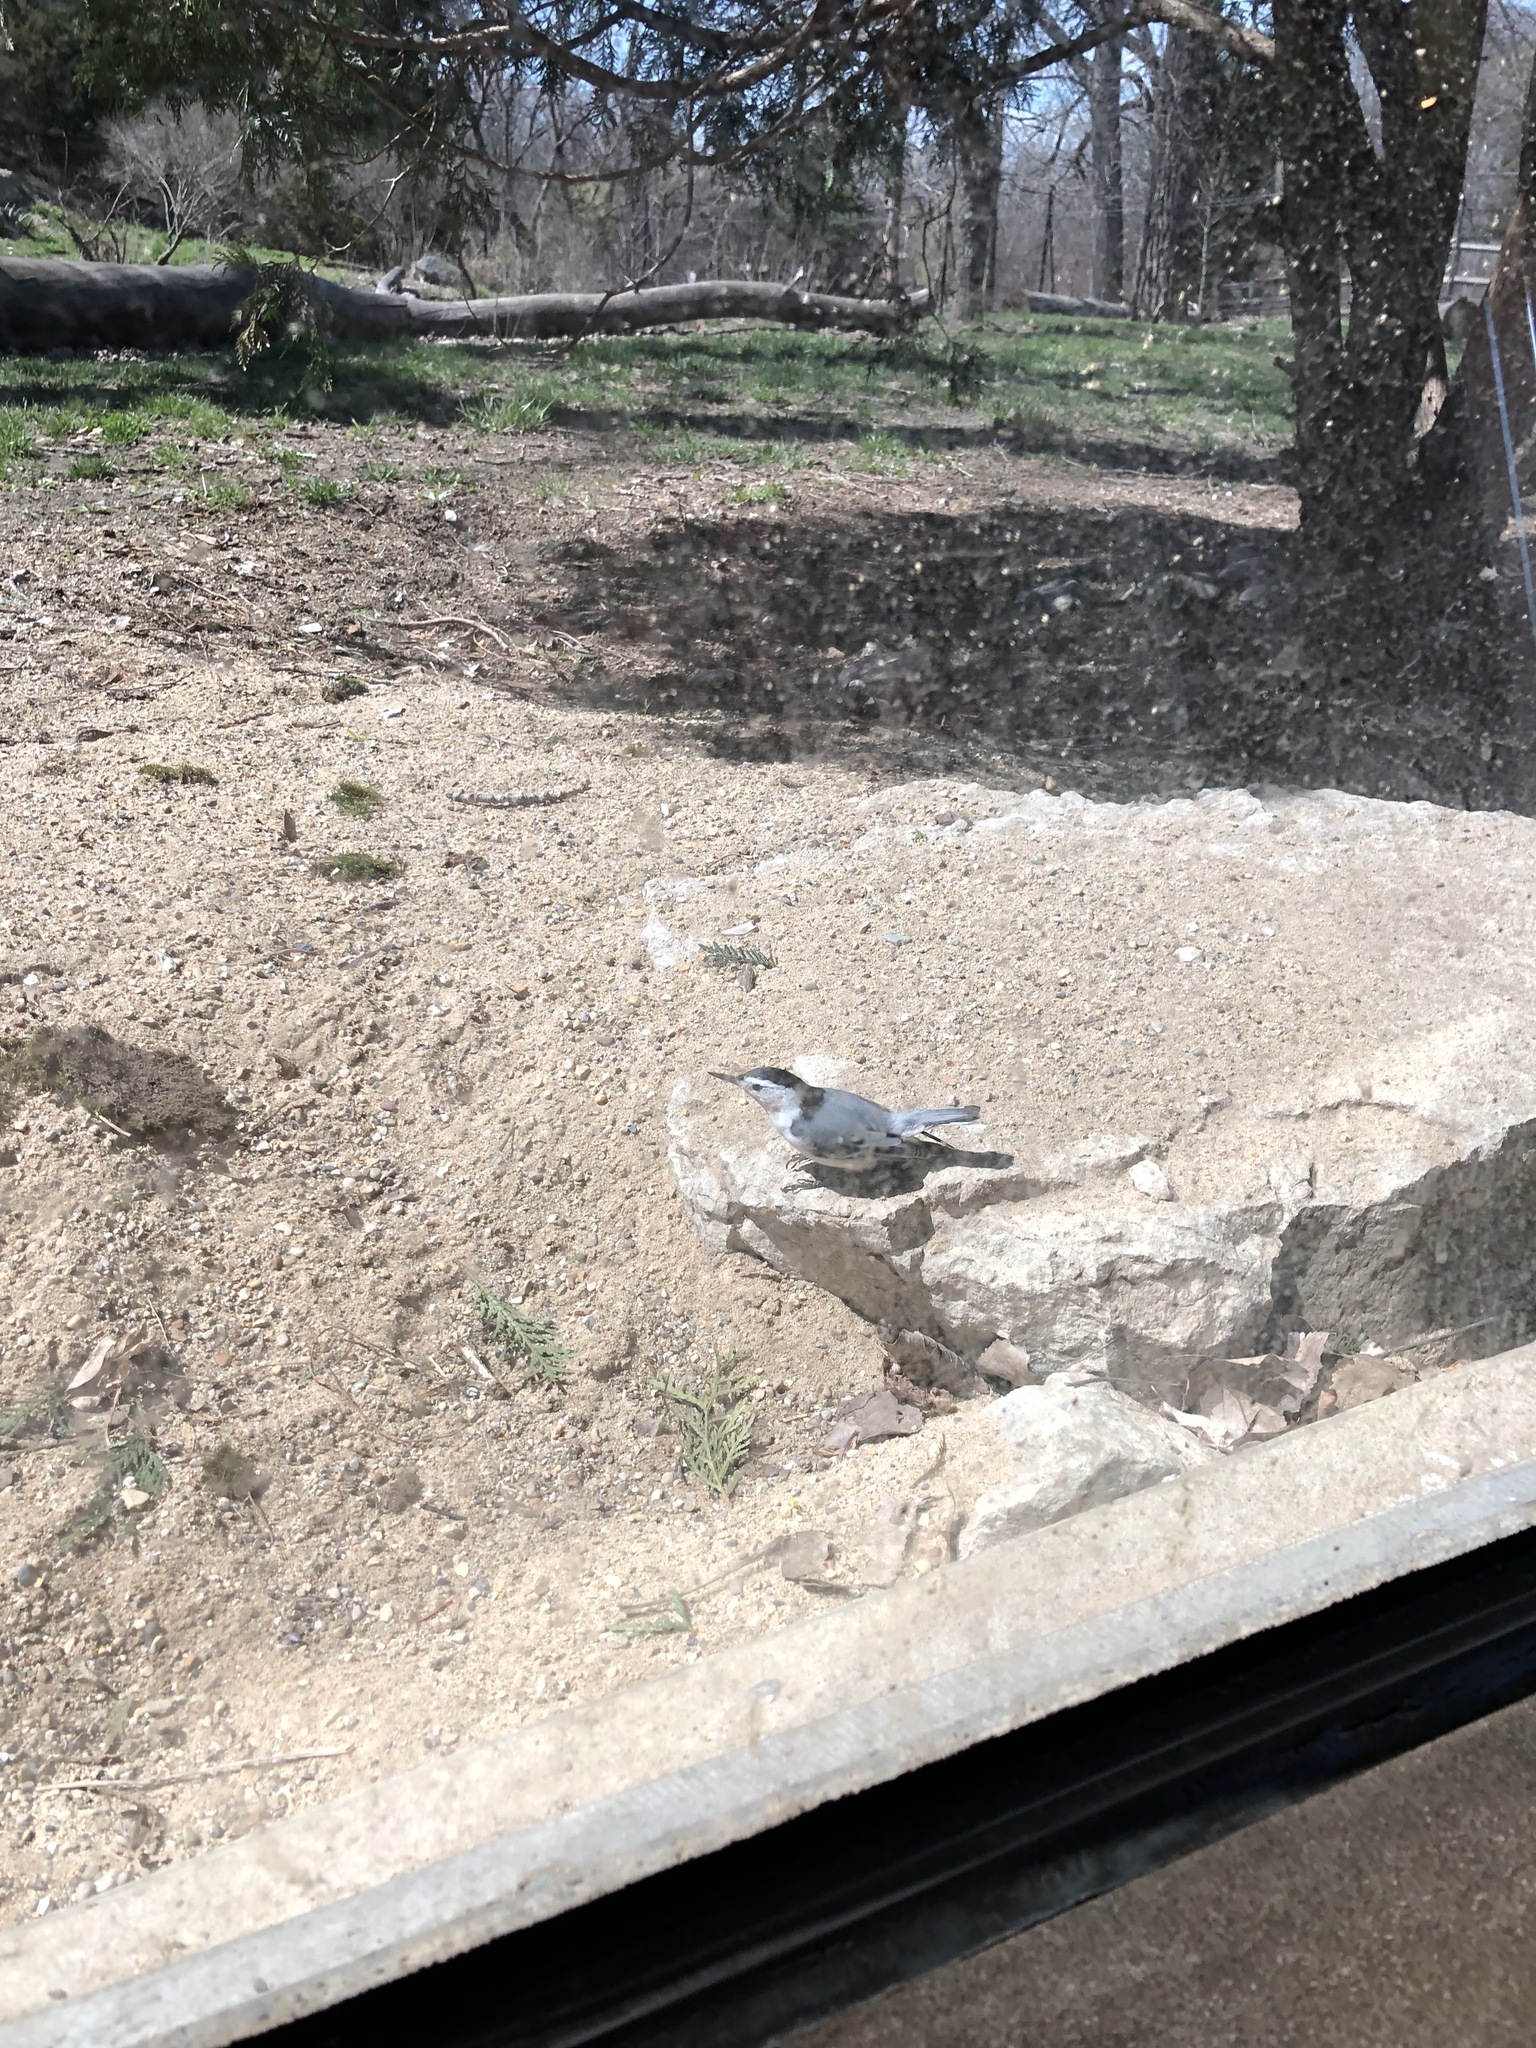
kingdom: Animalia
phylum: Chordata
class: Aves
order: Passeriformes
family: Sittidae
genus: Sitta
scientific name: Sitta carolinensis
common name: White-breasted nuthatch
